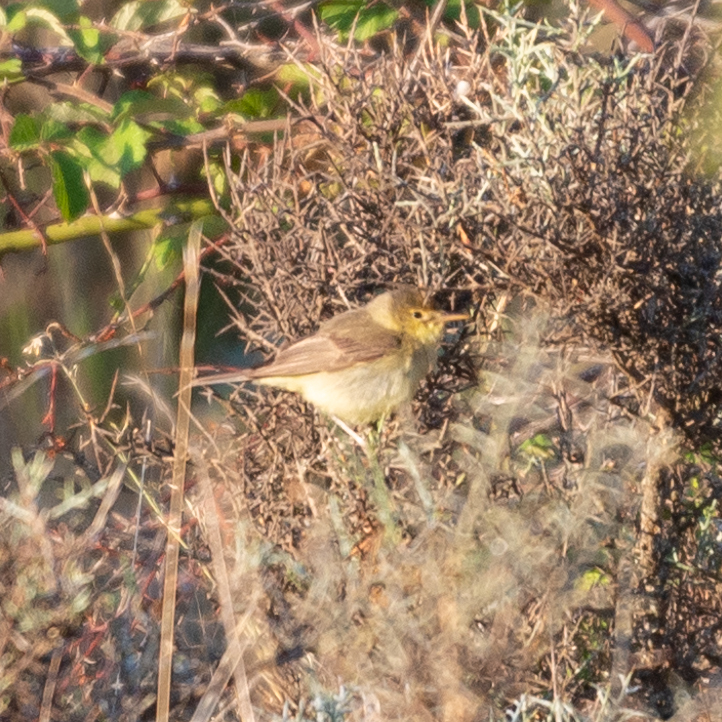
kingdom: Animalia
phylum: Chordata
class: Aves
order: Passeriformes
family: Acrocephalidae
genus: Hippolais
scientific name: Hippolais polyglotta
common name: Melodious warbler
